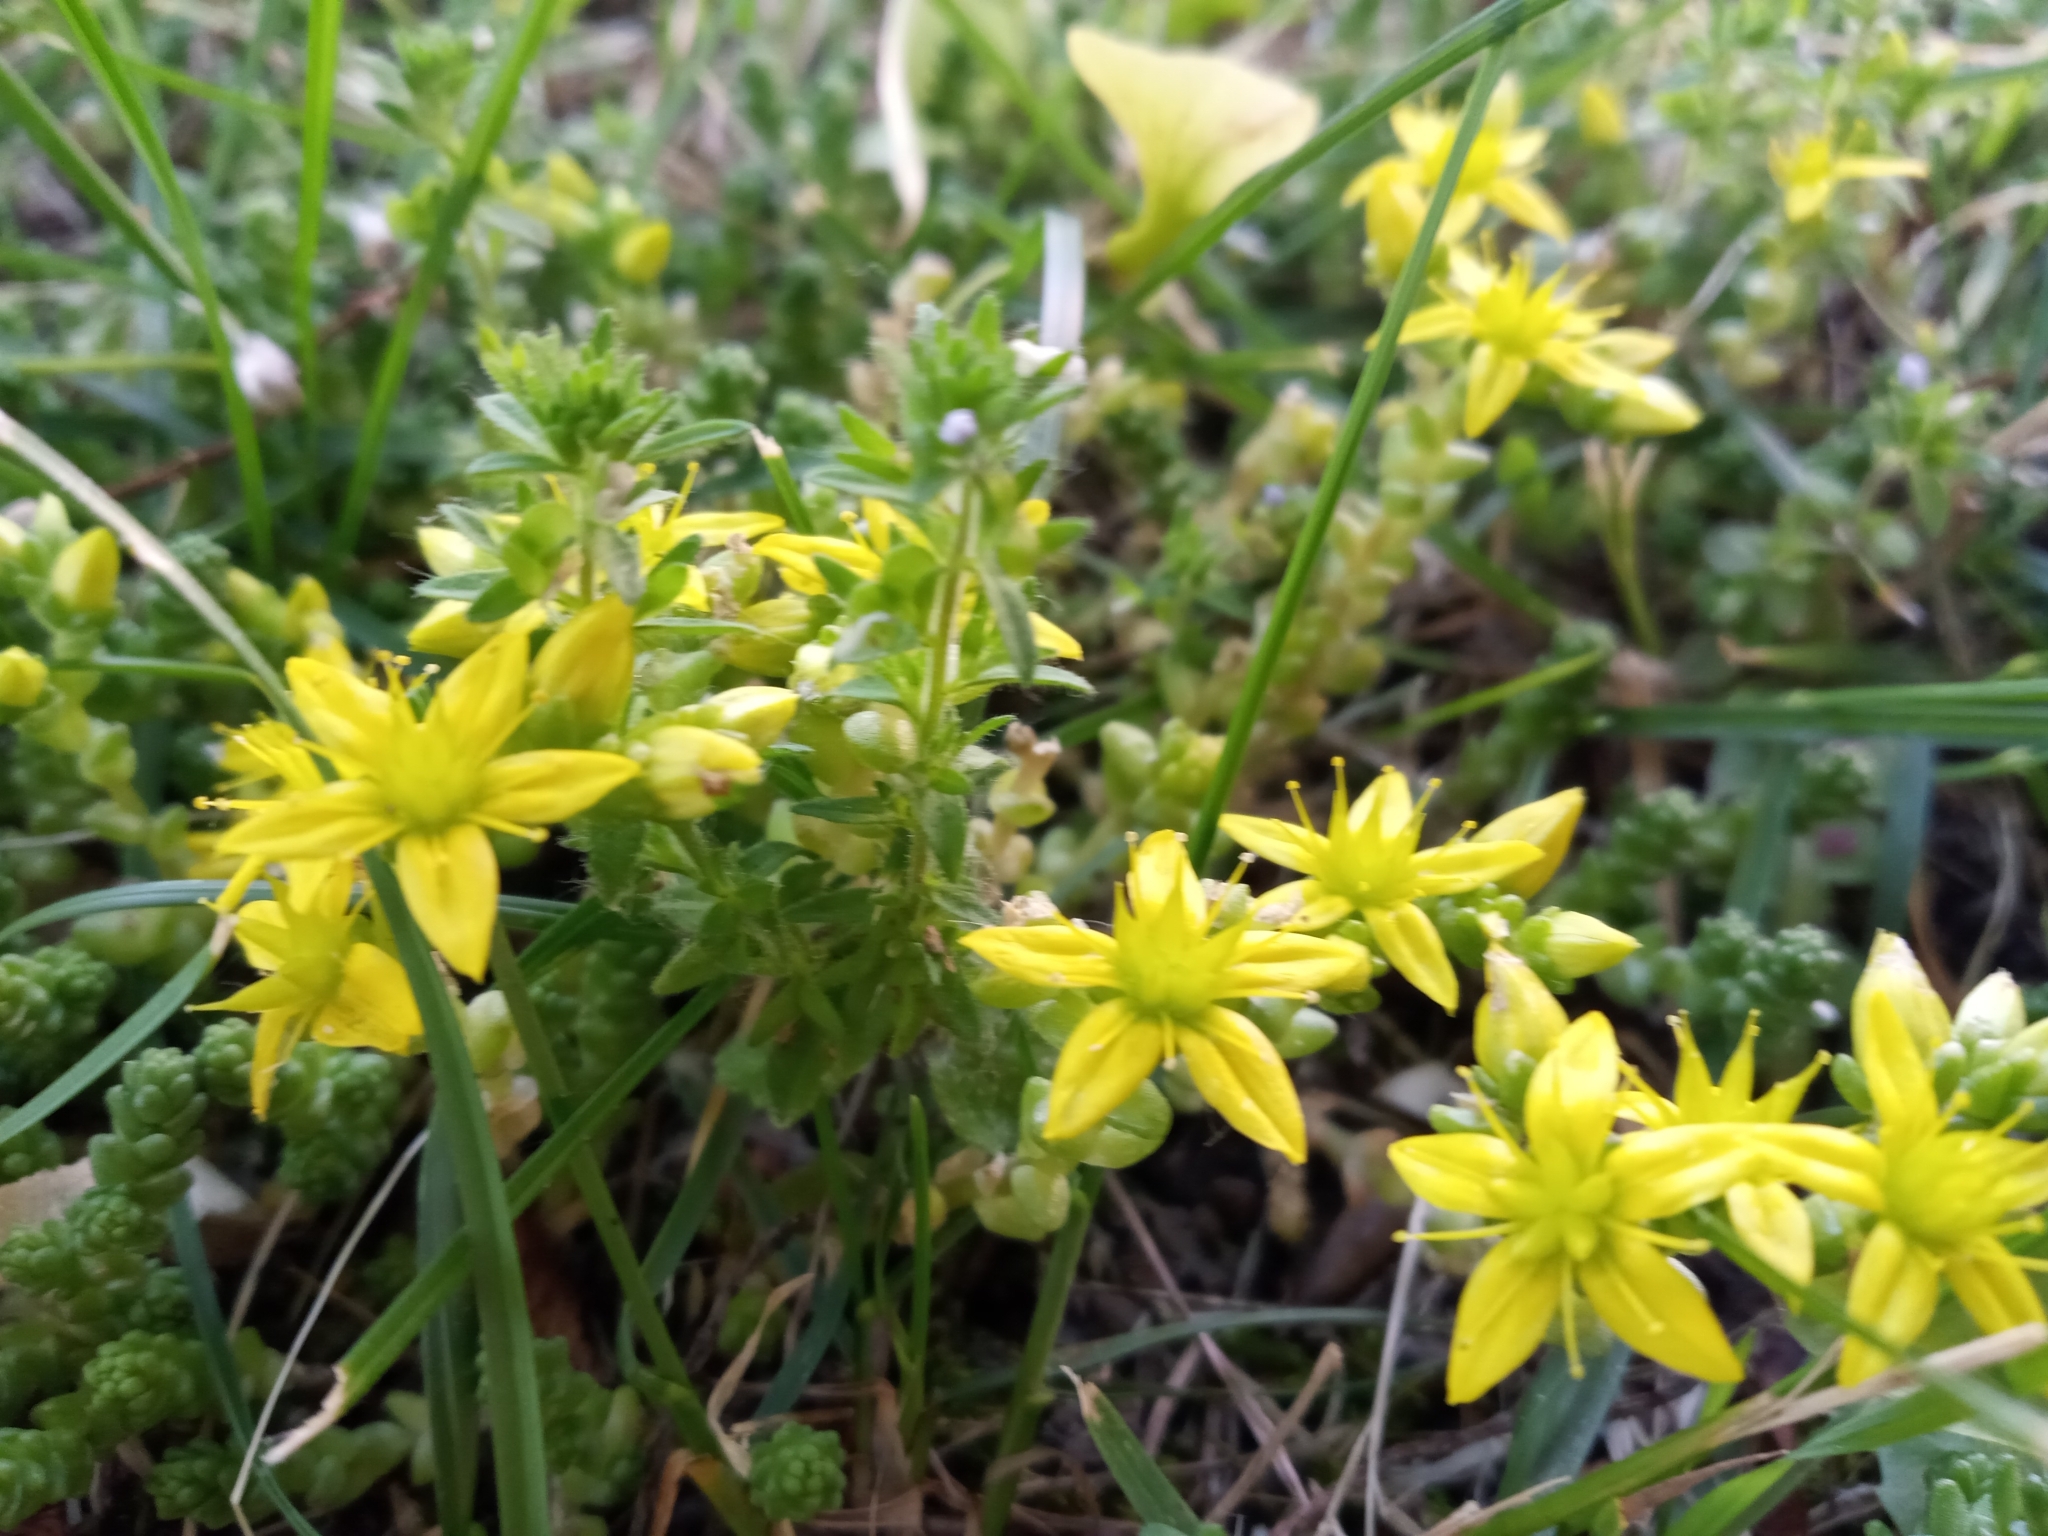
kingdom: Plantae
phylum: Tracheophyta
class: Magnoliopsida
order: Saxifragales
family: Crassulaceae
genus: Sedum
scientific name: Sedum acre
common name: Biting stonecrop
